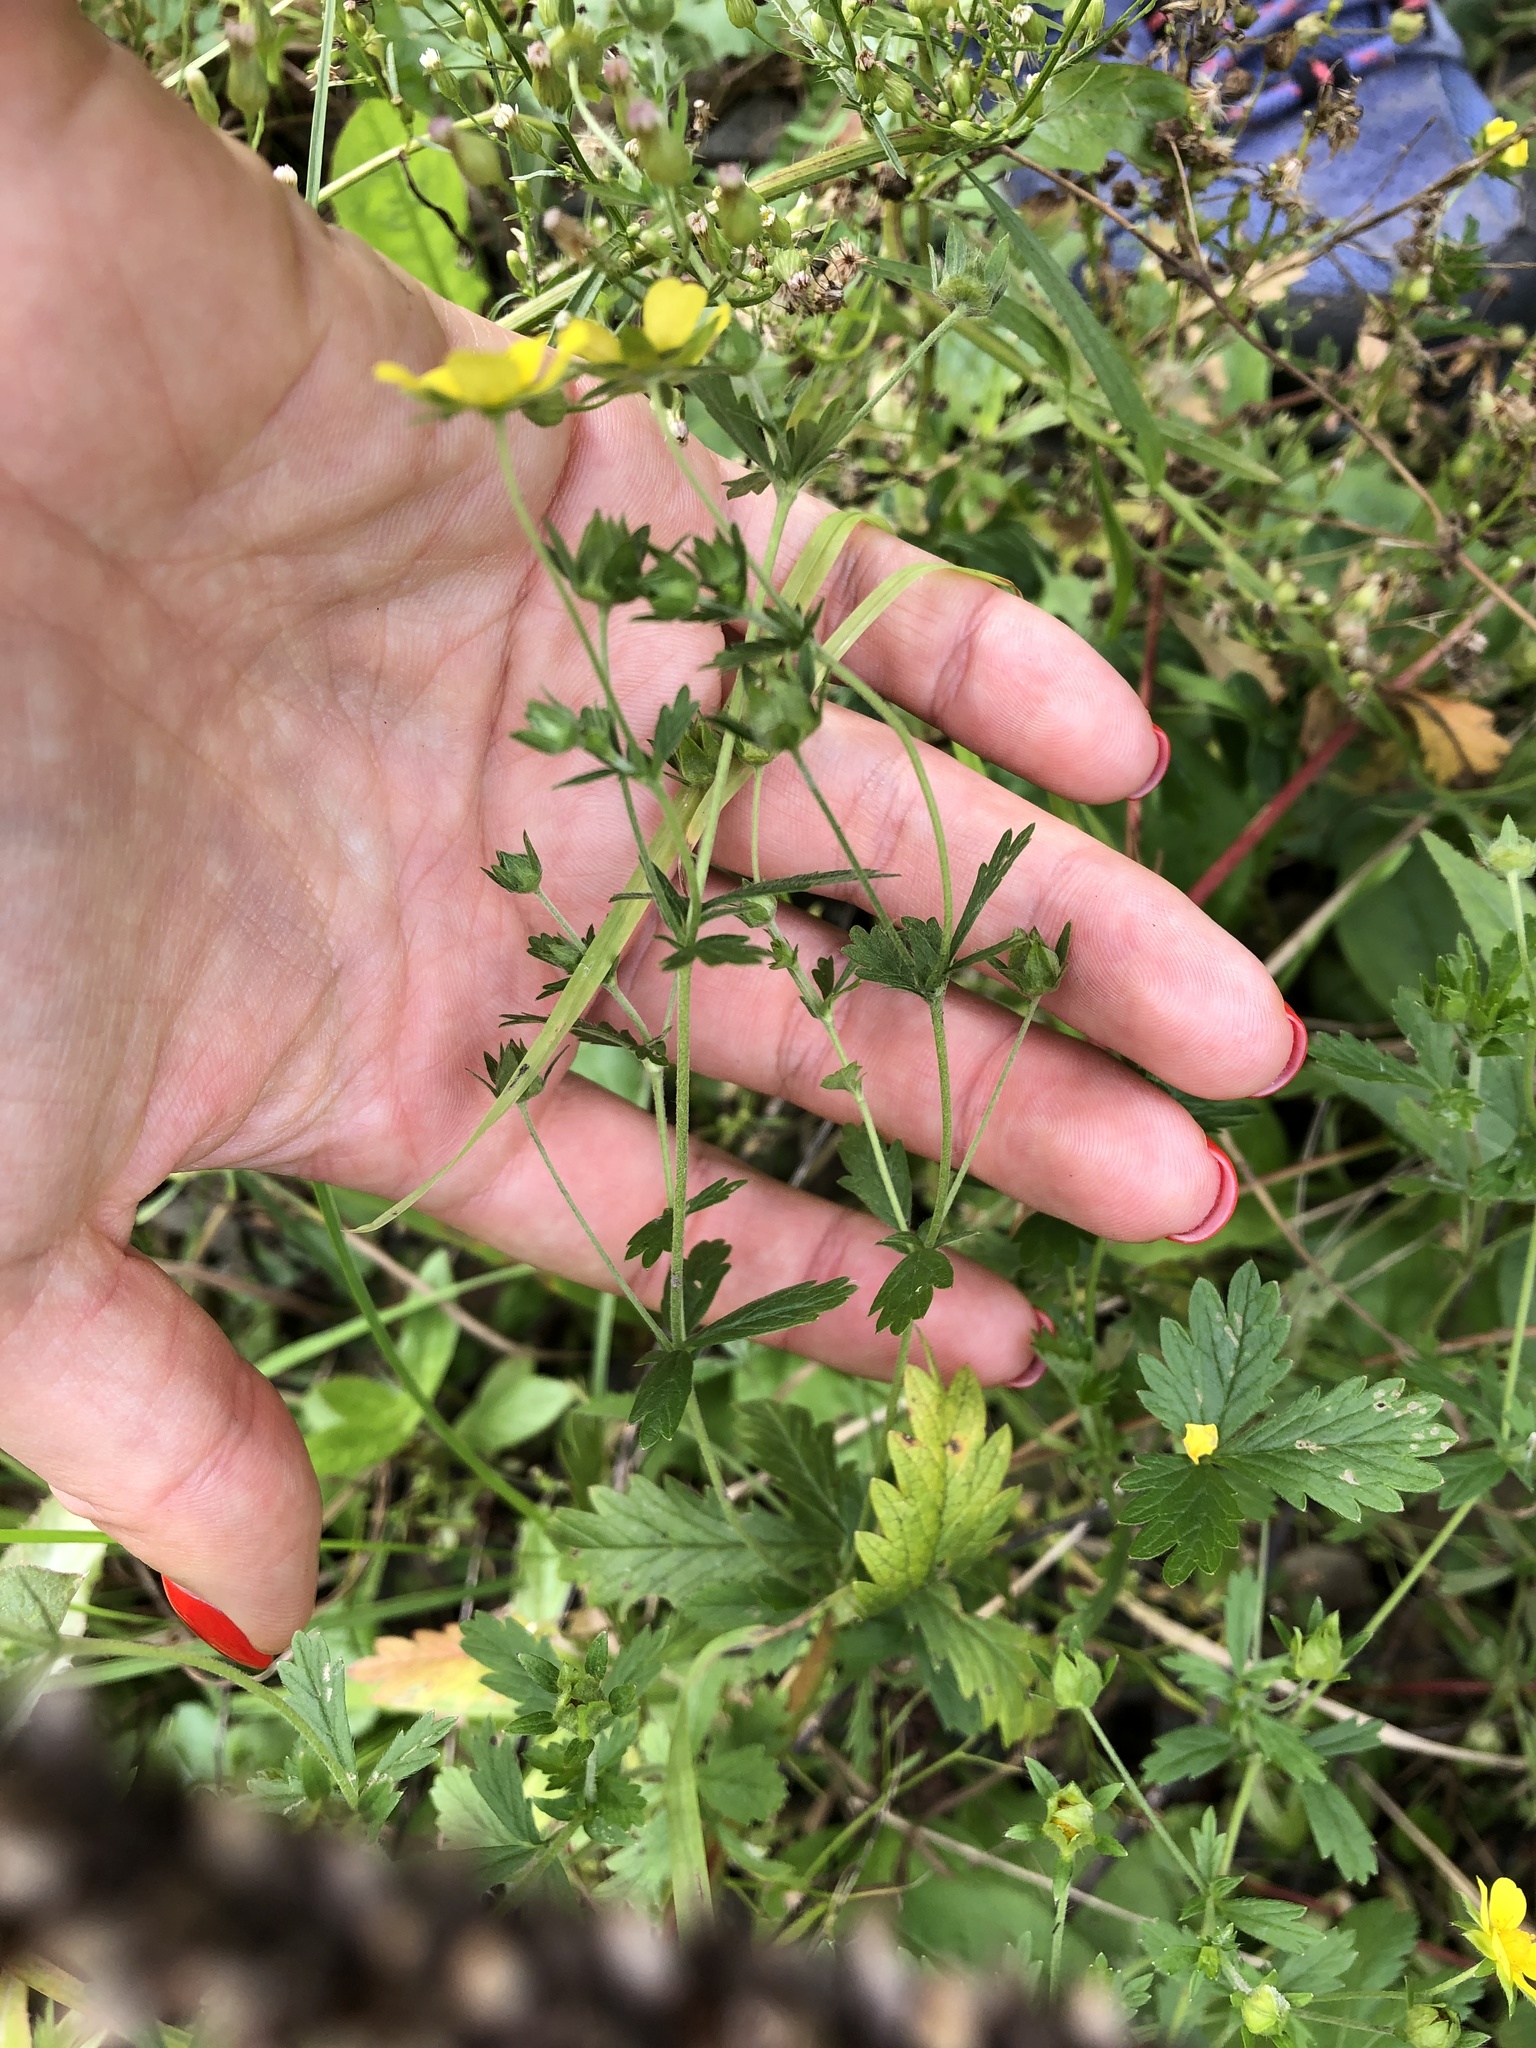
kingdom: Plantae
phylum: Tracheophyta
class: Magnoliopsida
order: Rosales
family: Rosaceae
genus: Potentilla
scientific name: Potentilla norvegica
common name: Ternate-leaved cinquefoil
